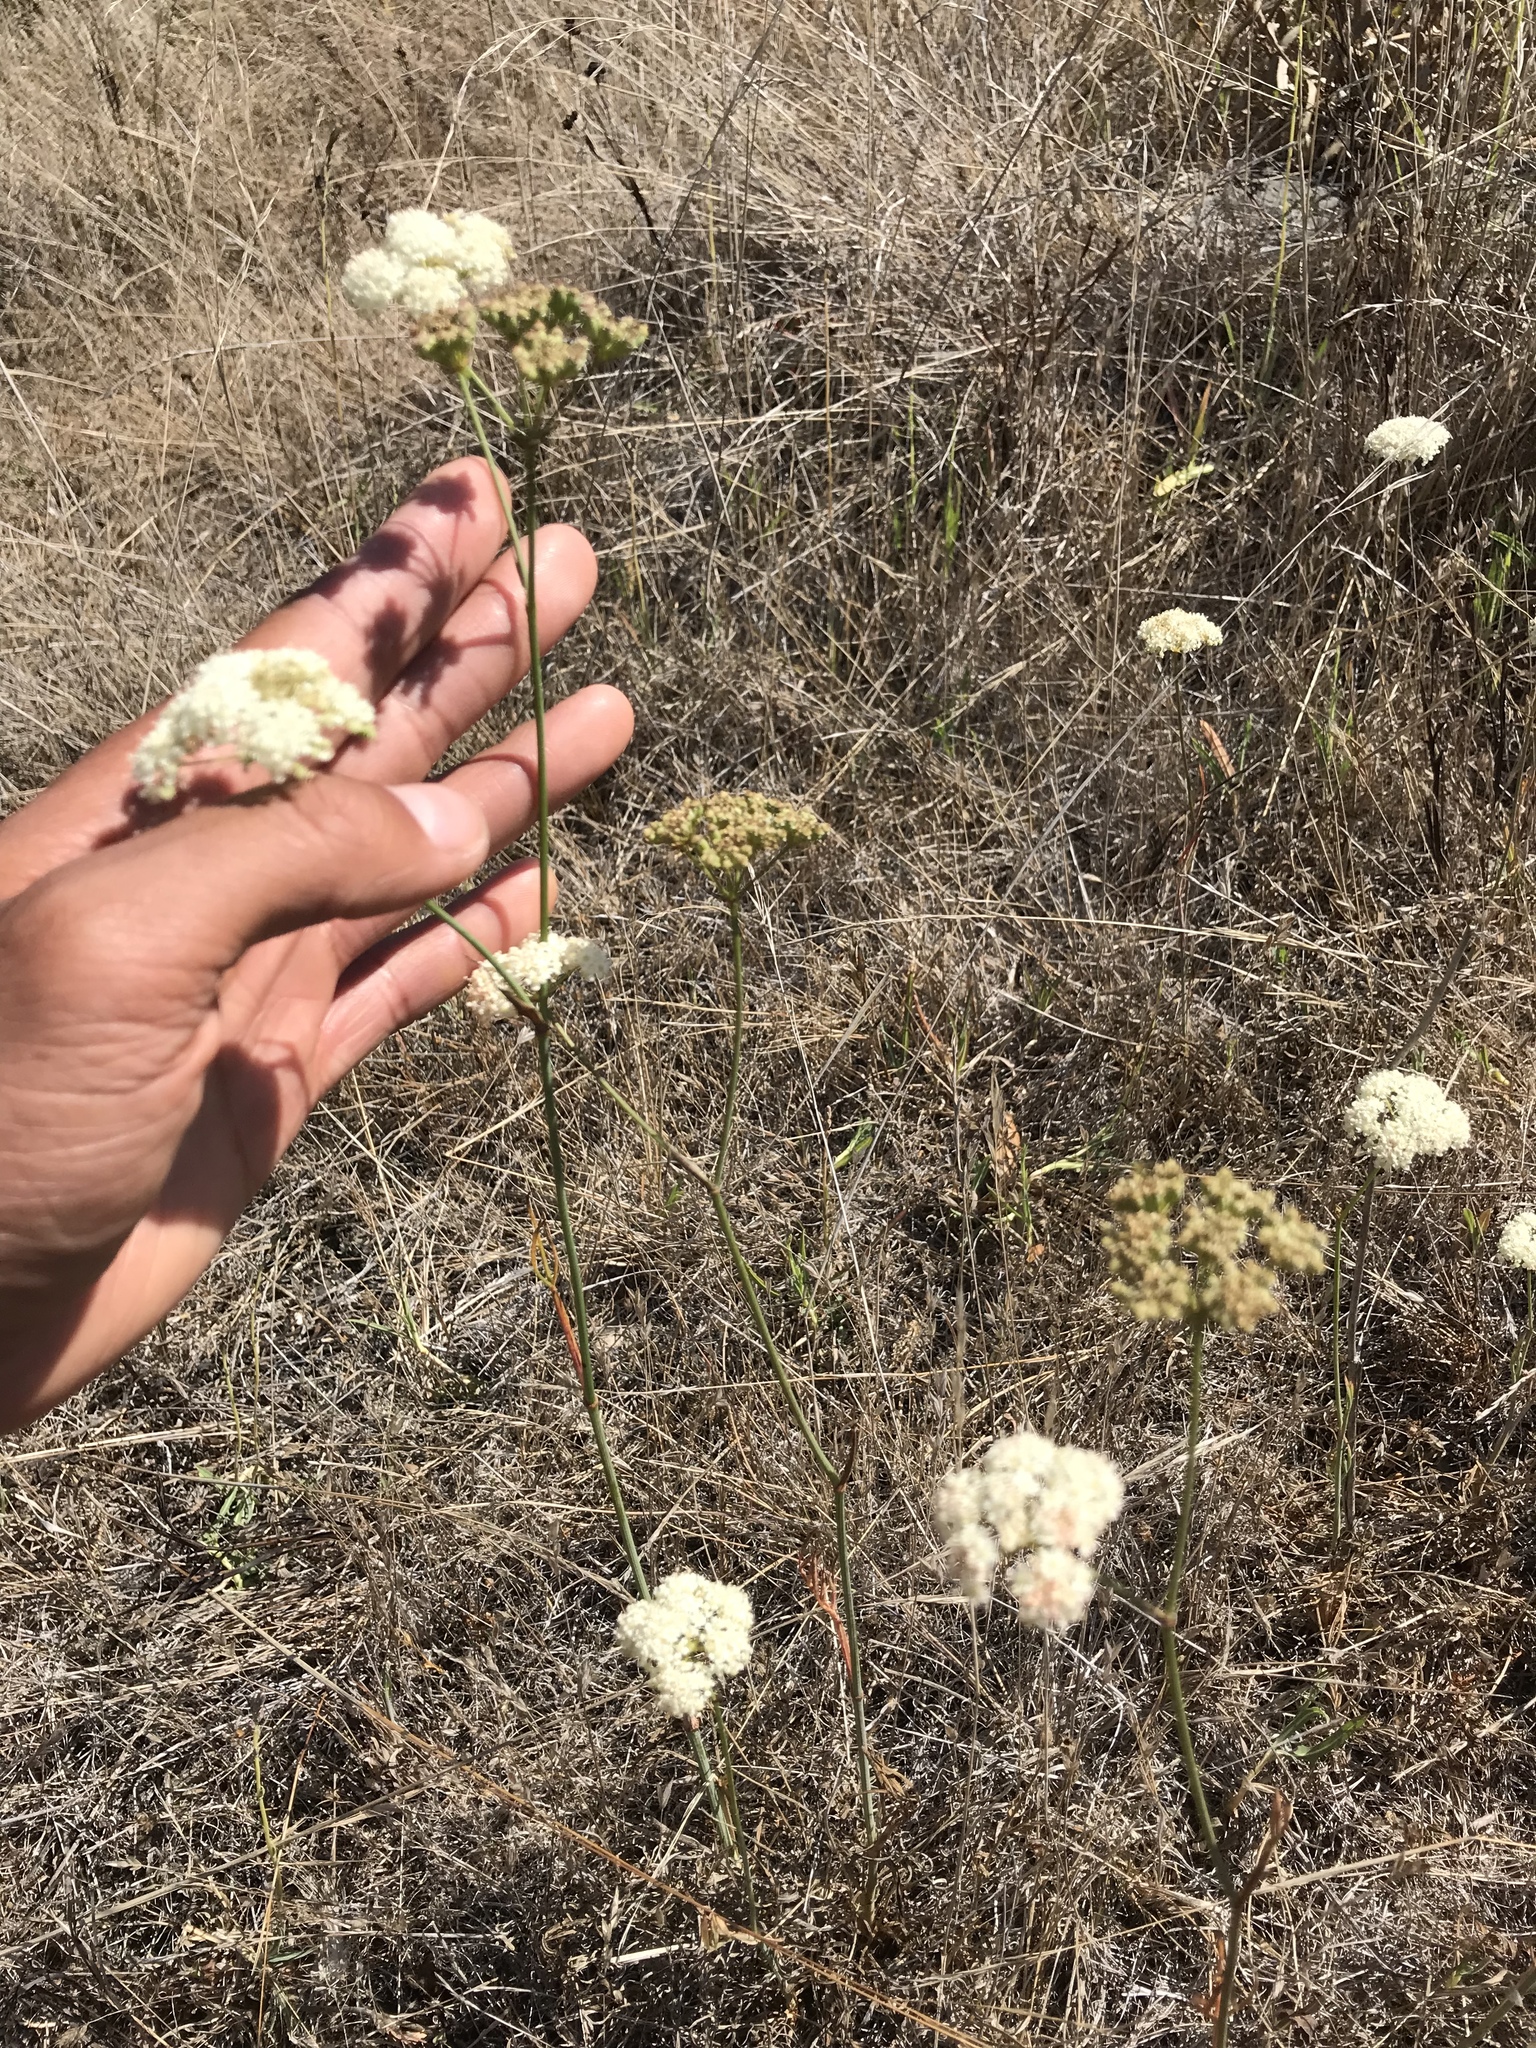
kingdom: Plantae
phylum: Tracheophyta
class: Magnoliopsida
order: Apiales
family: Apiaceae
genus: Perideridia
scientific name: Perideridia kelloggii
